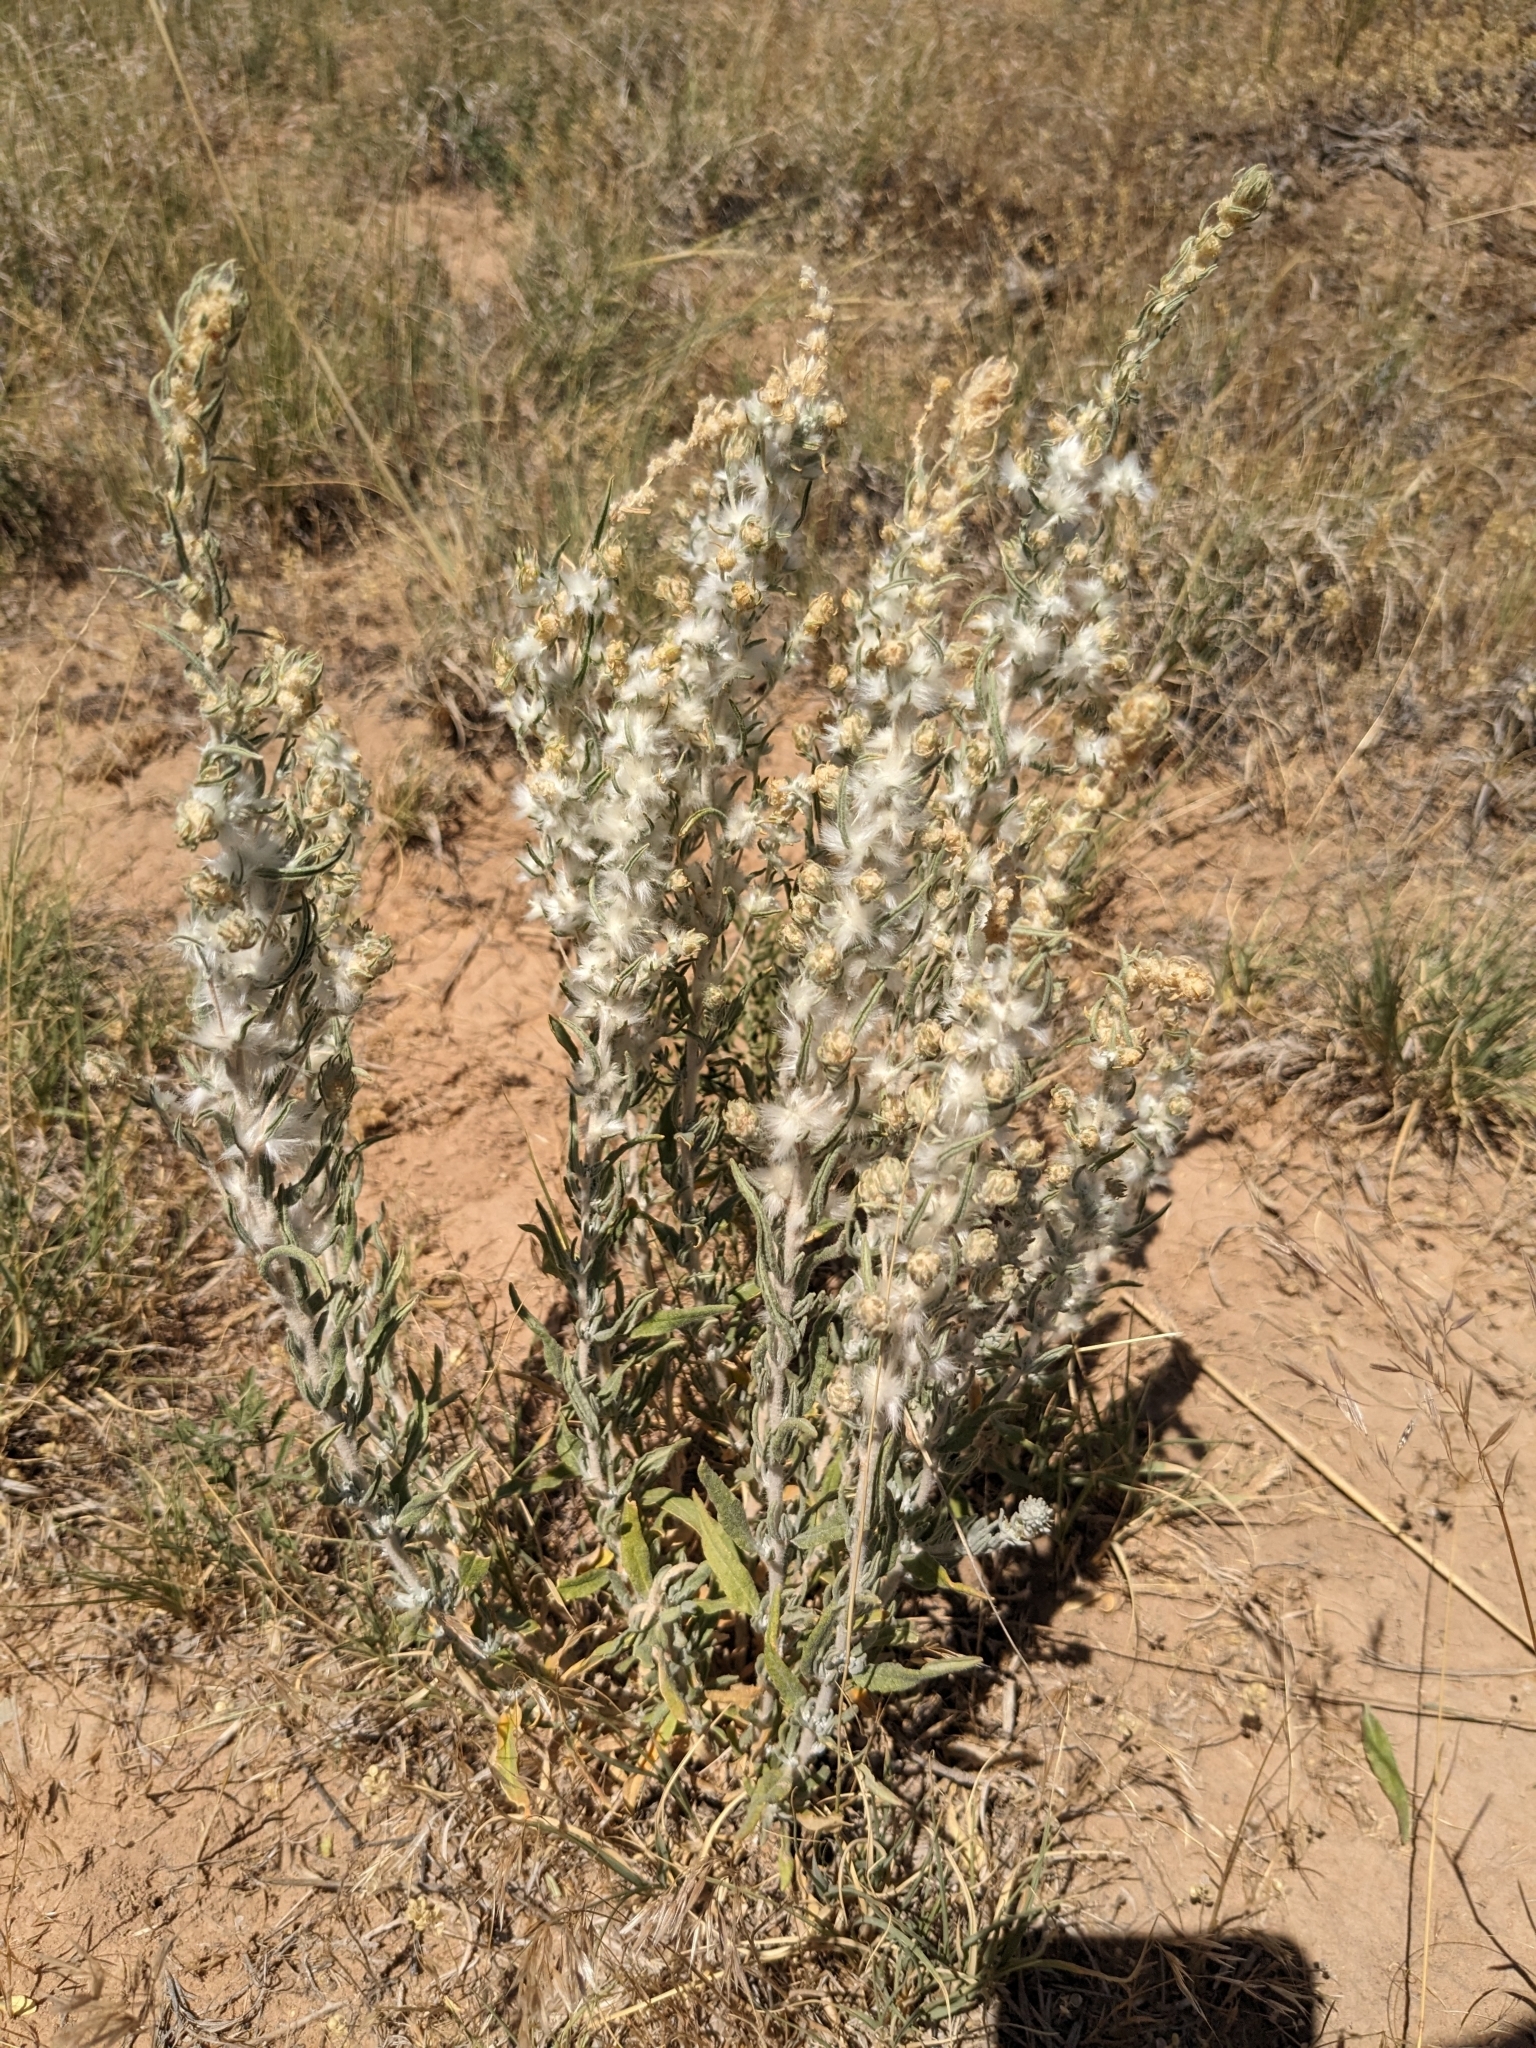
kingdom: Plantae
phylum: Tracheophyta
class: Magnoliopsida
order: Caryophyllales
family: Amaranthaceae
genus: Krascheninnikovia
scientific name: Krascheninnikovia lanata
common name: Winterfat
